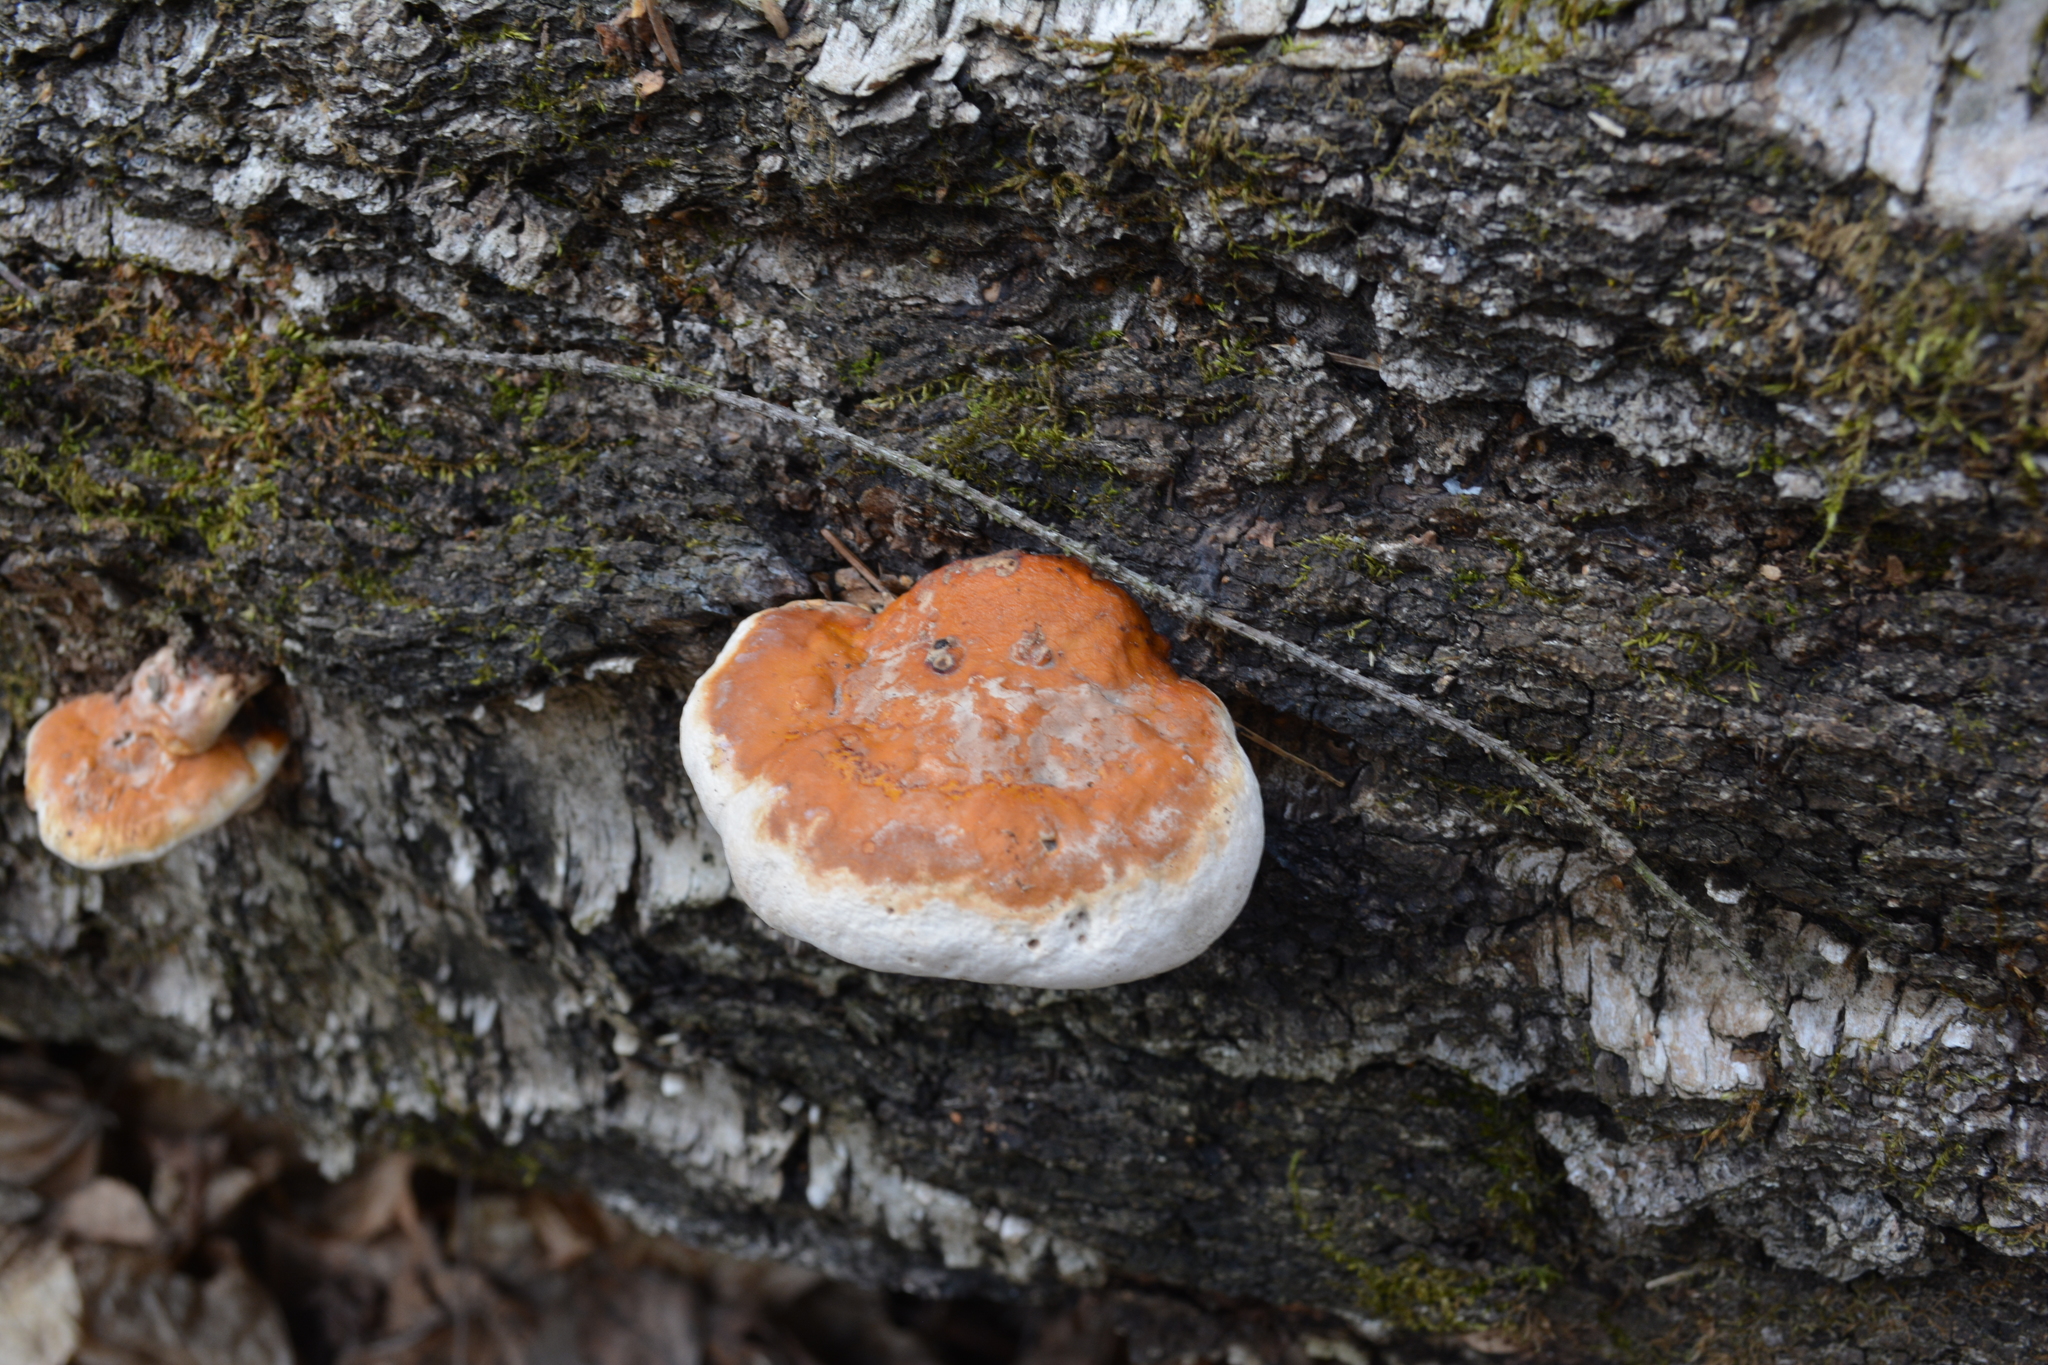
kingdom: Fungi
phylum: Basidiomycota
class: Agaricomycetes
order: Polyporales
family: Fomitopsidaceae
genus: Fomitopsis
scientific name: Fomitopsis pinicola
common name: Red-belted bracket
